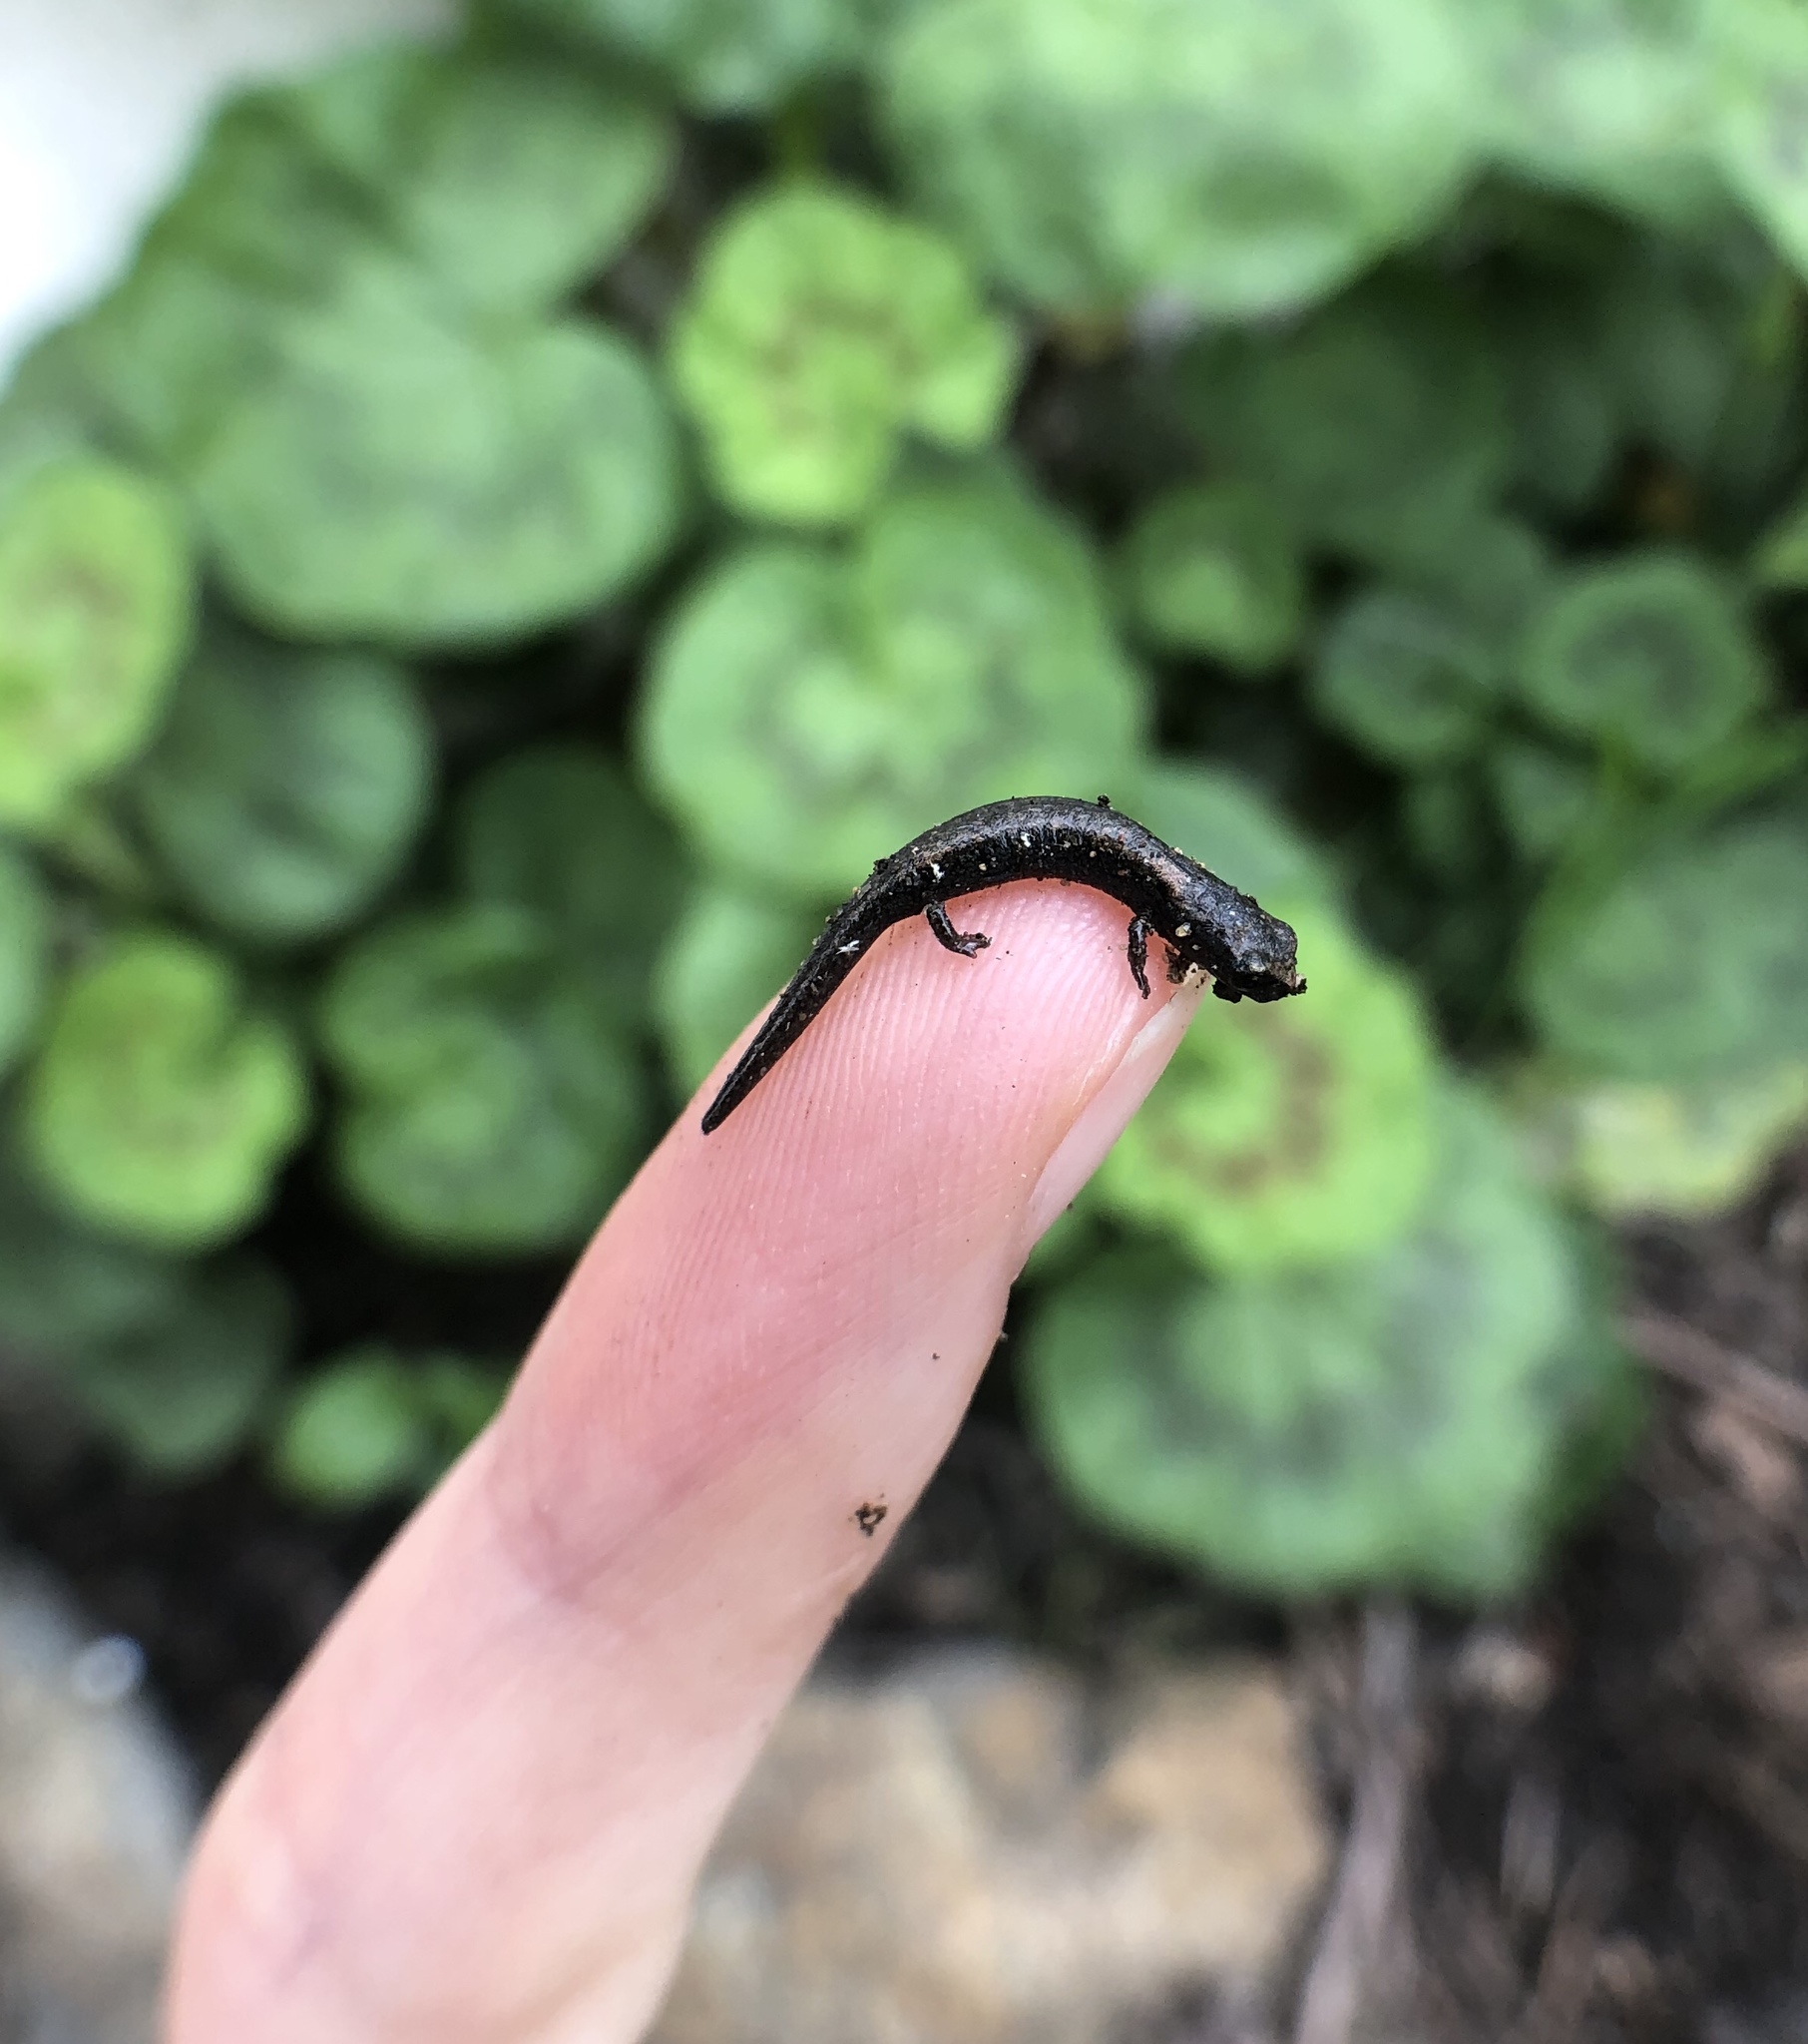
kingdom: Animalia
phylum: Chordata
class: Amphibia
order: Caudata
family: Plethodontidae
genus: Batrachoseps
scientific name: Batrachoseps major
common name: Garden slender salamander
